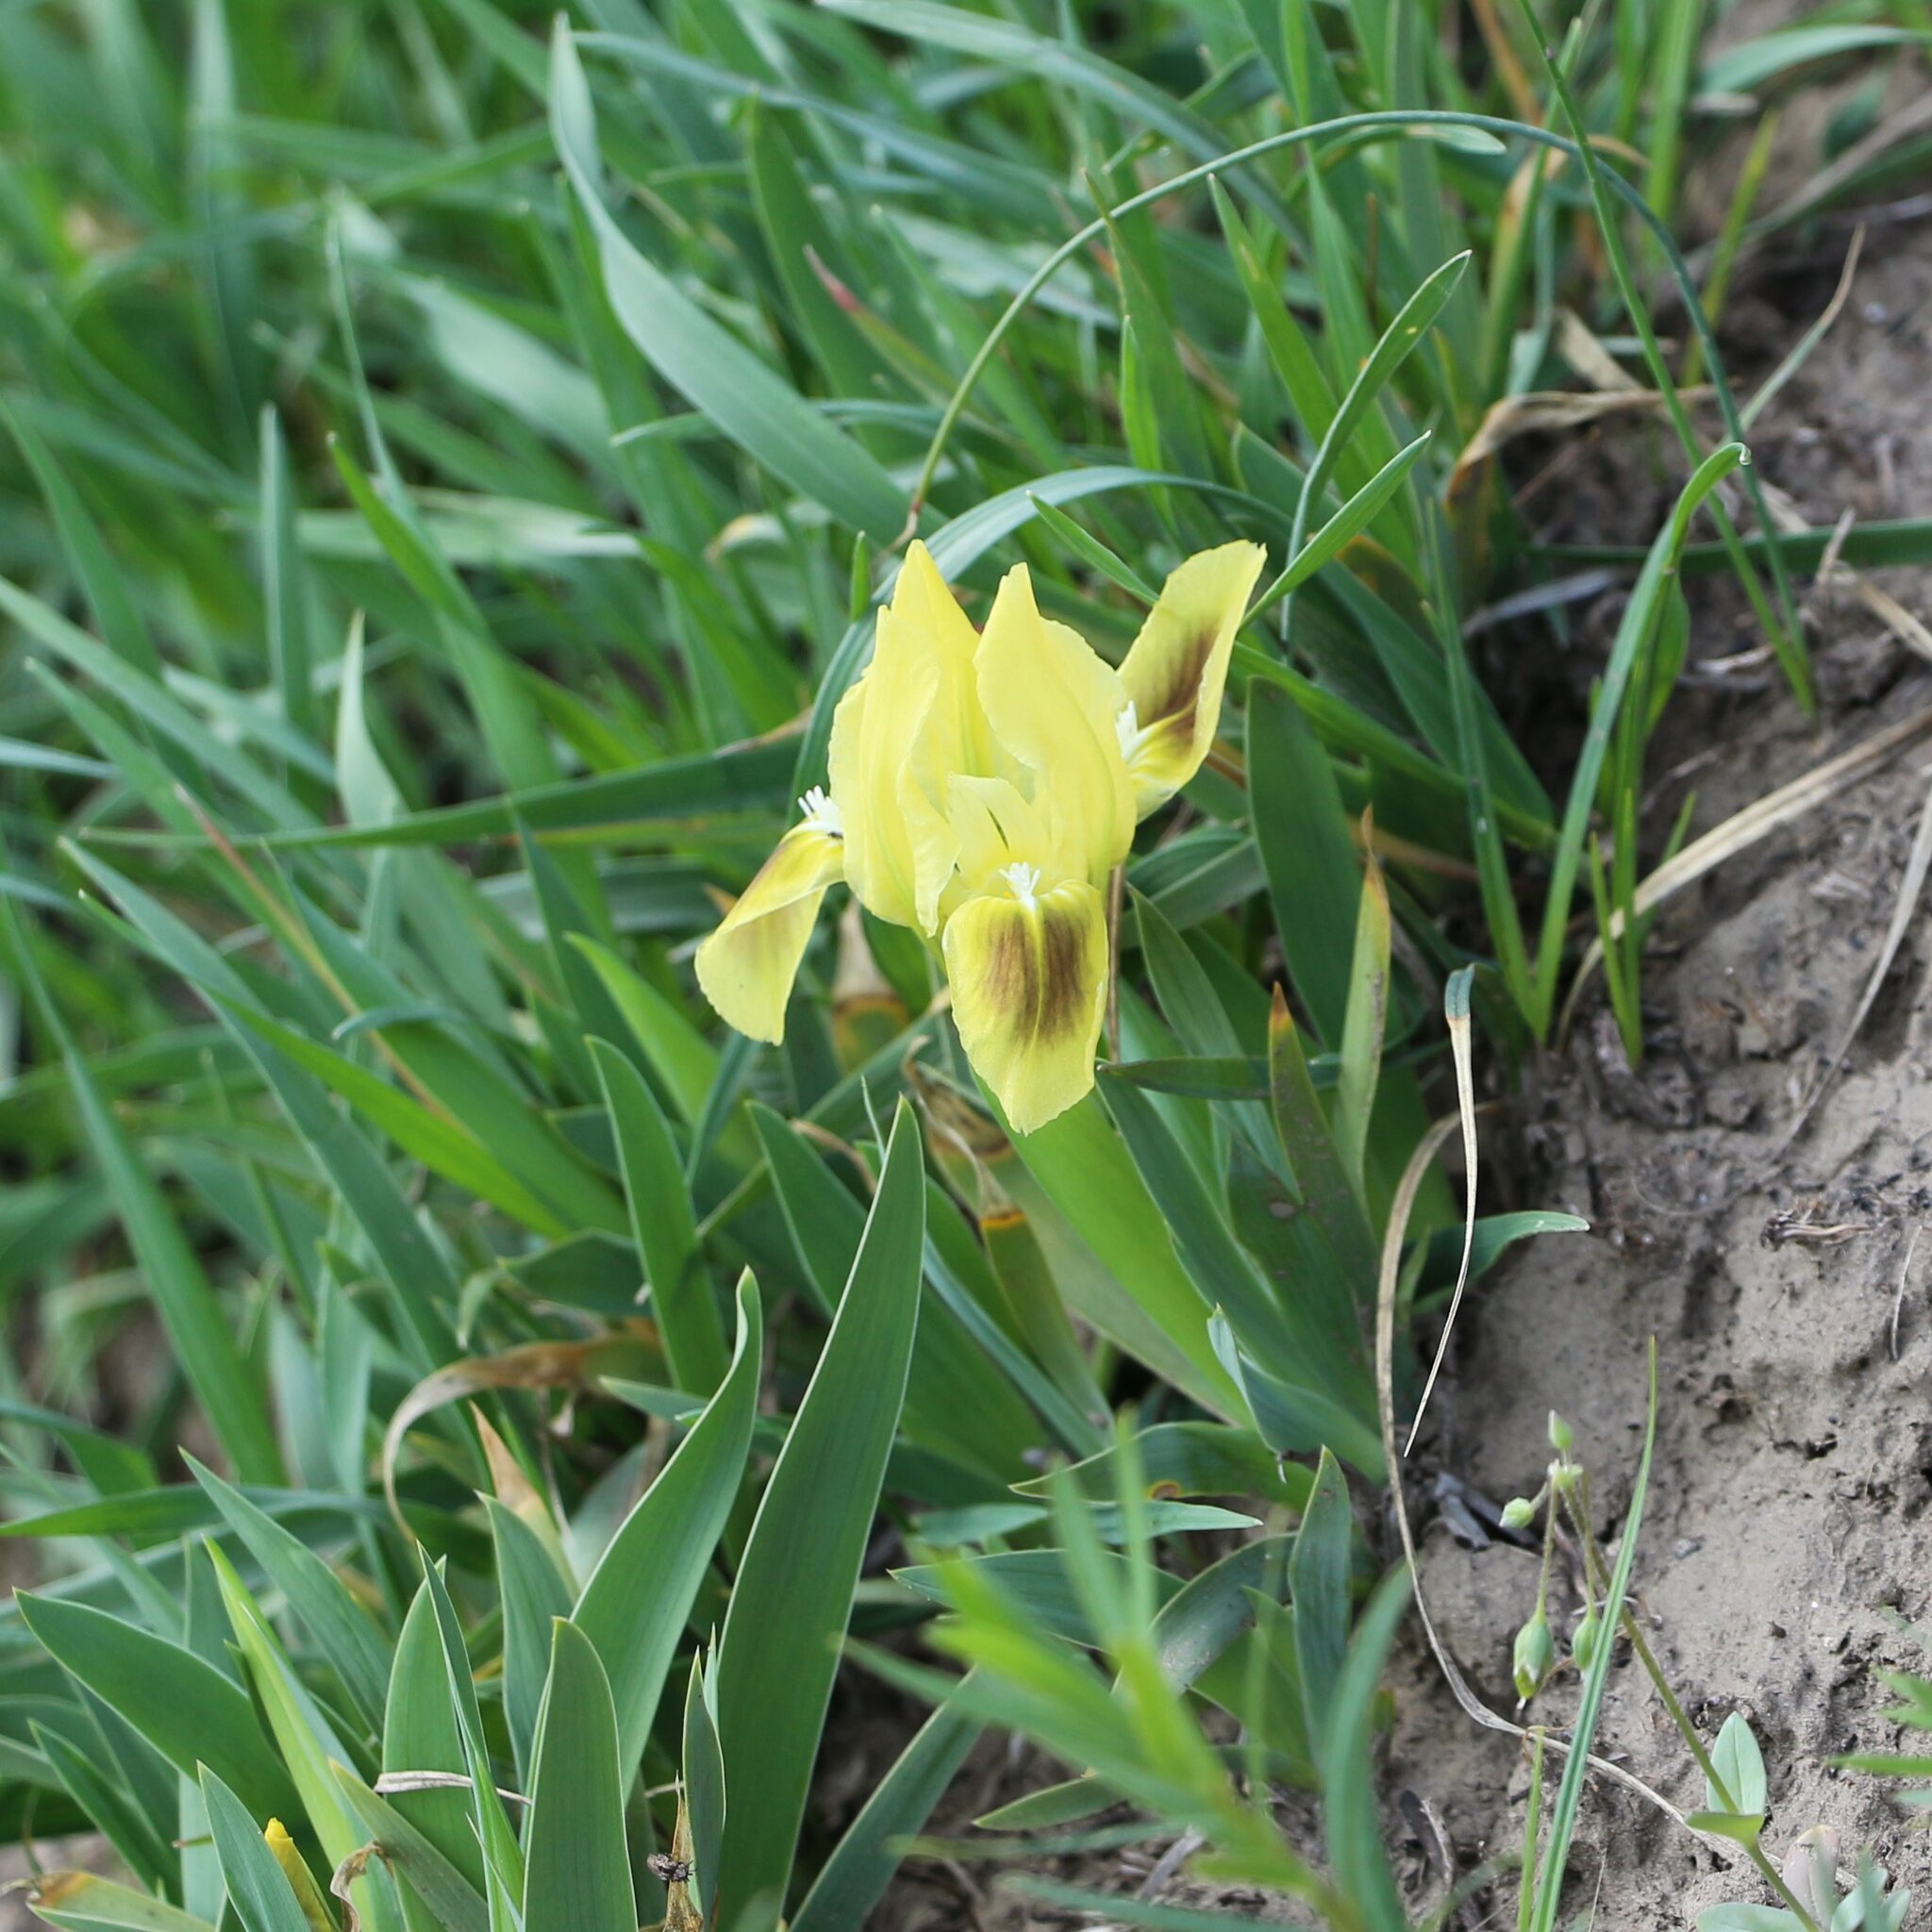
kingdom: Plantae
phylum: Tracheophyta
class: Liliopsida
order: Asparagales
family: Iridaceae
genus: Iris
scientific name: Iris pumila
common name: Dwarf iris
